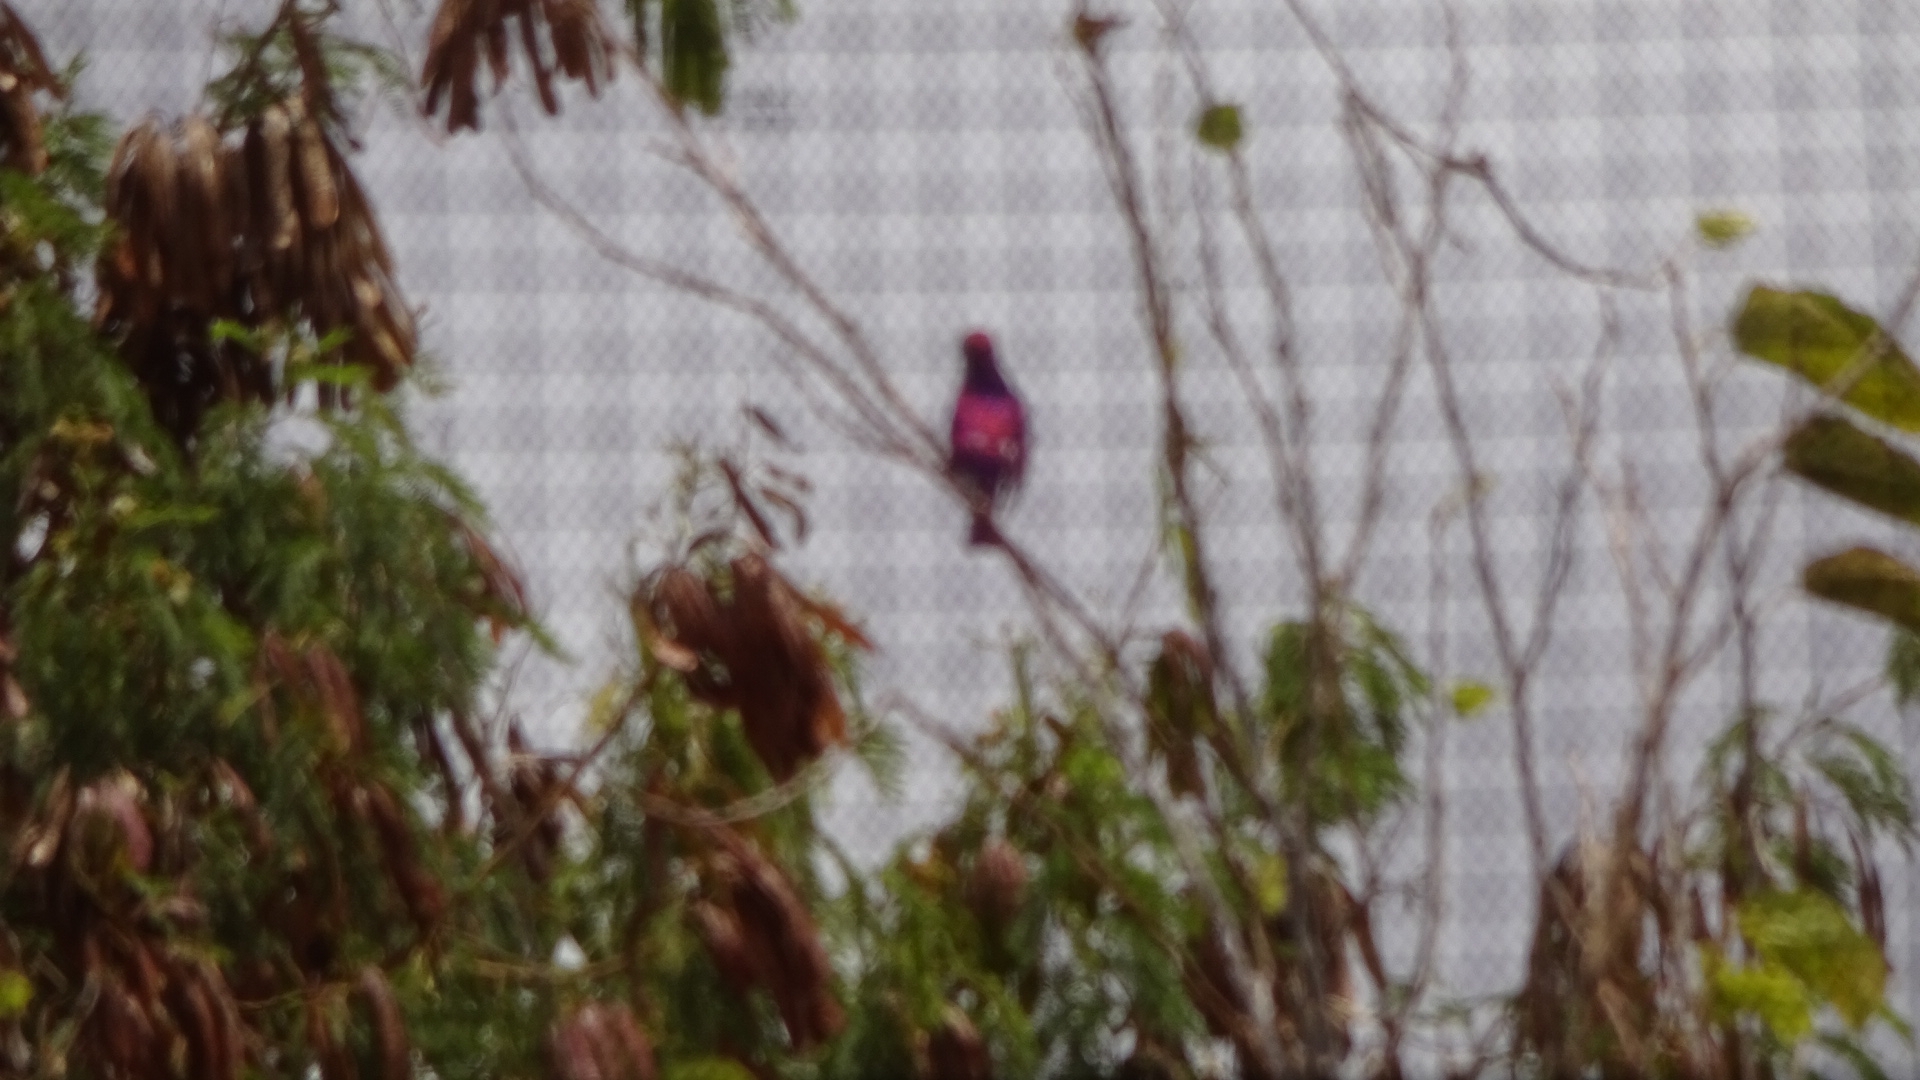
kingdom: Animalia
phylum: Chordata
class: Aves
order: Passeriformes
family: Sturnidae
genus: Cinnyricinclus
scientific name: Cinnyricinclus leucogaster
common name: Violet-backed starling
